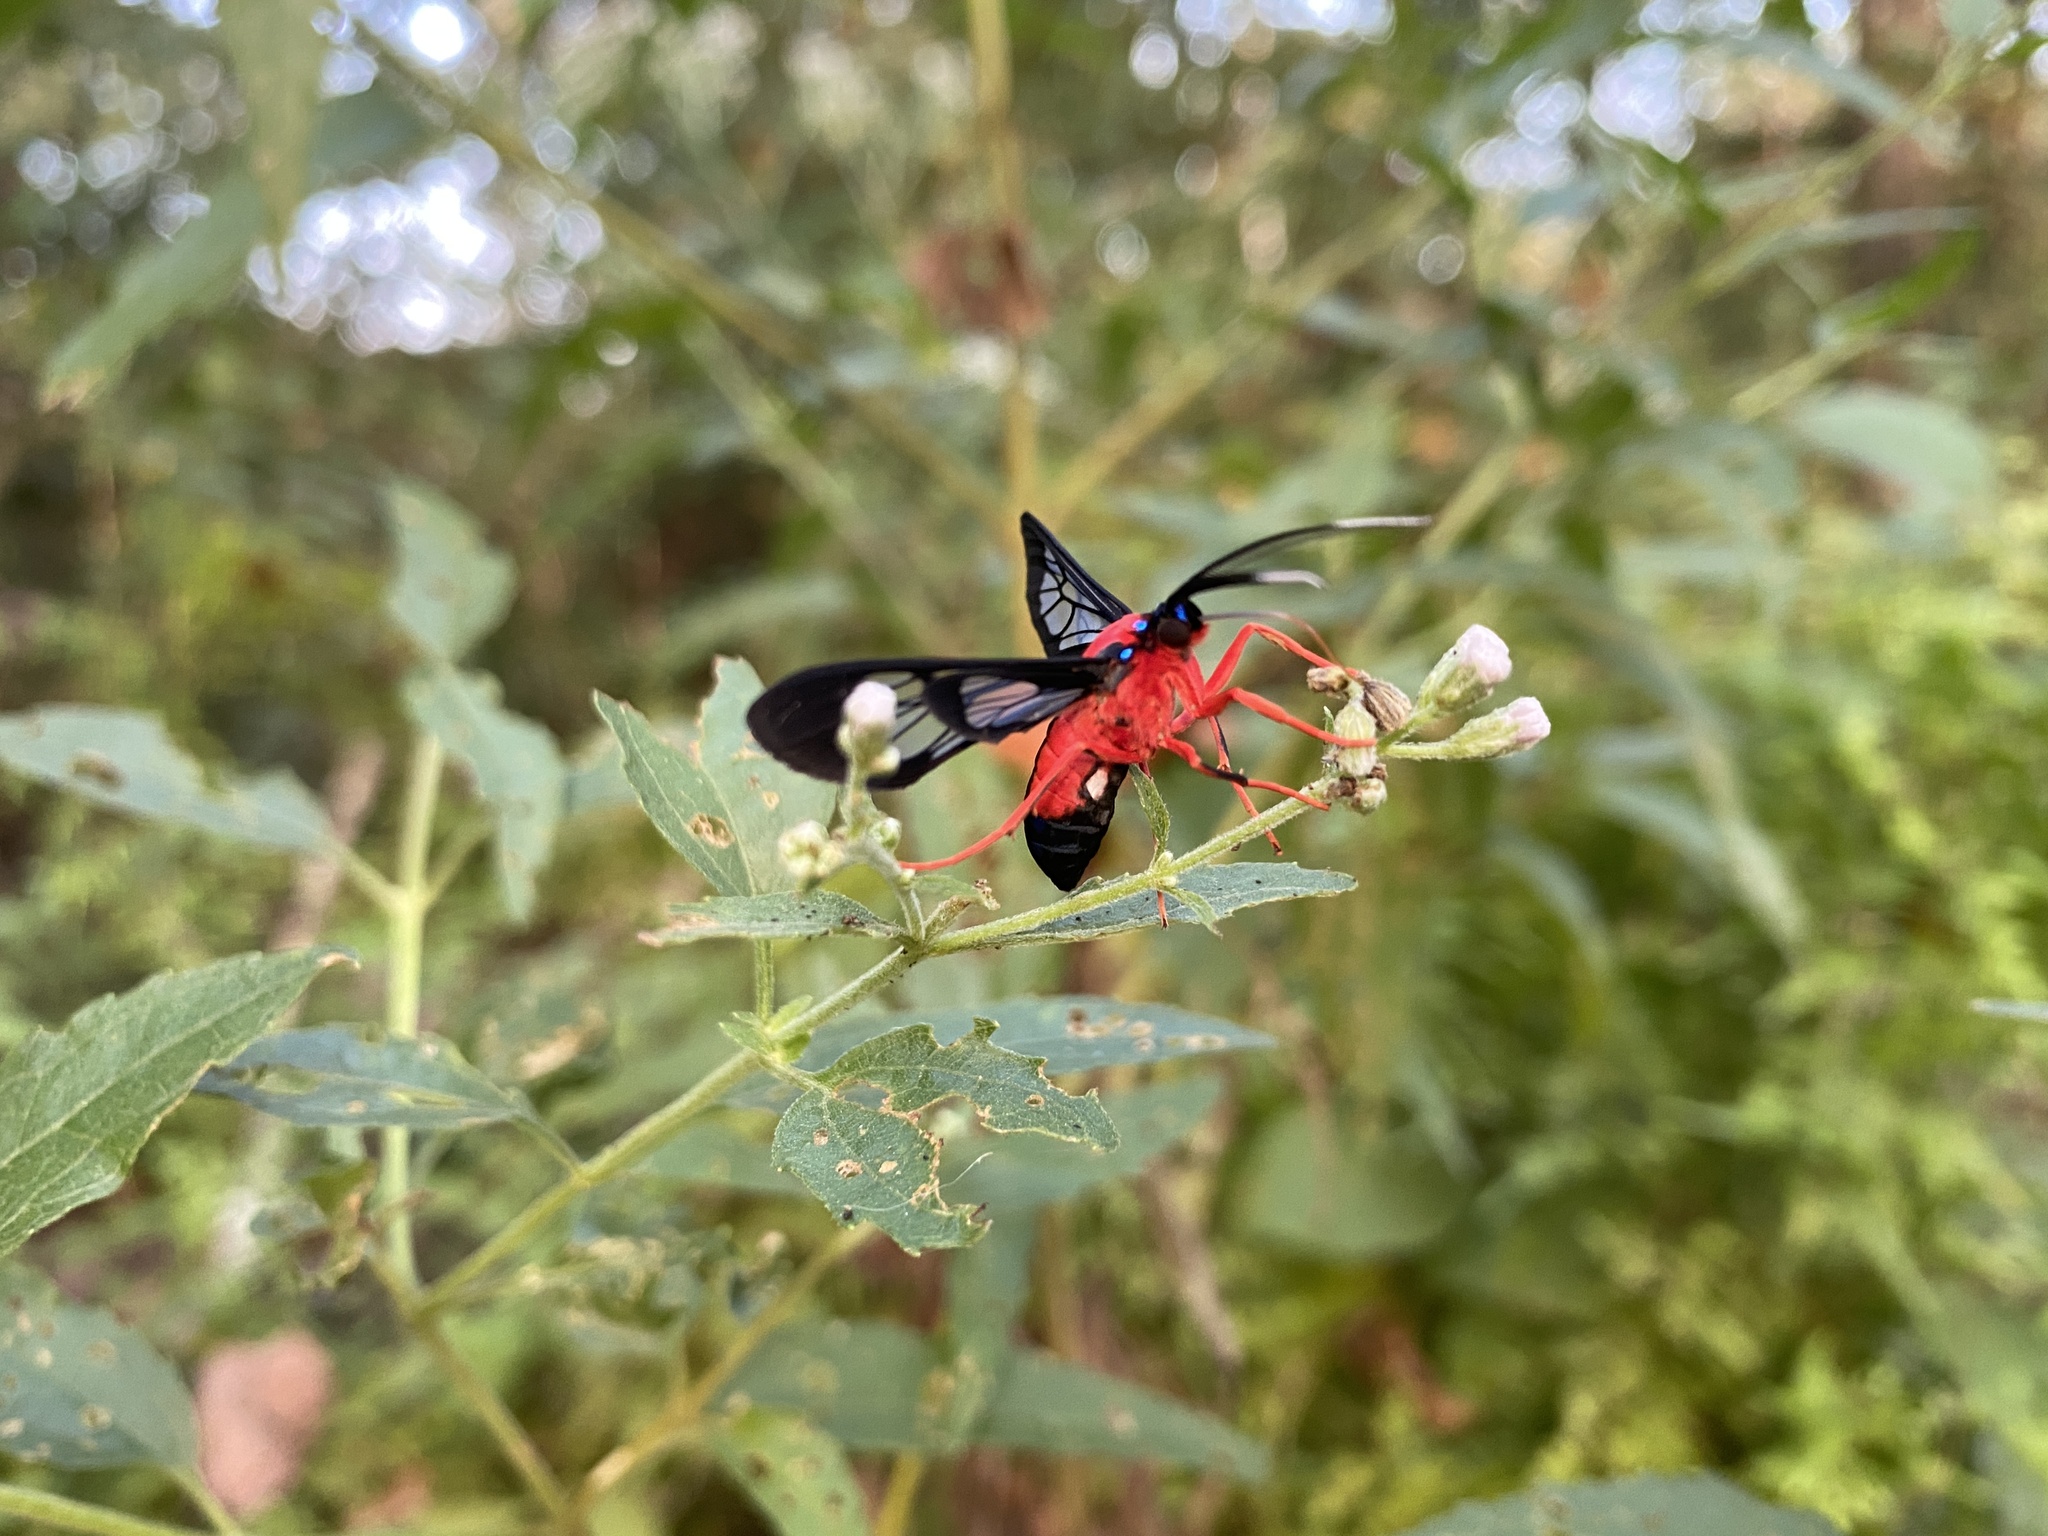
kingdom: Animalia
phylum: Arthropoda
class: Insecta
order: Lepidoptera
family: Erebidae
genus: Cosmosoma
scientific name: Cosmosoma myrodora
